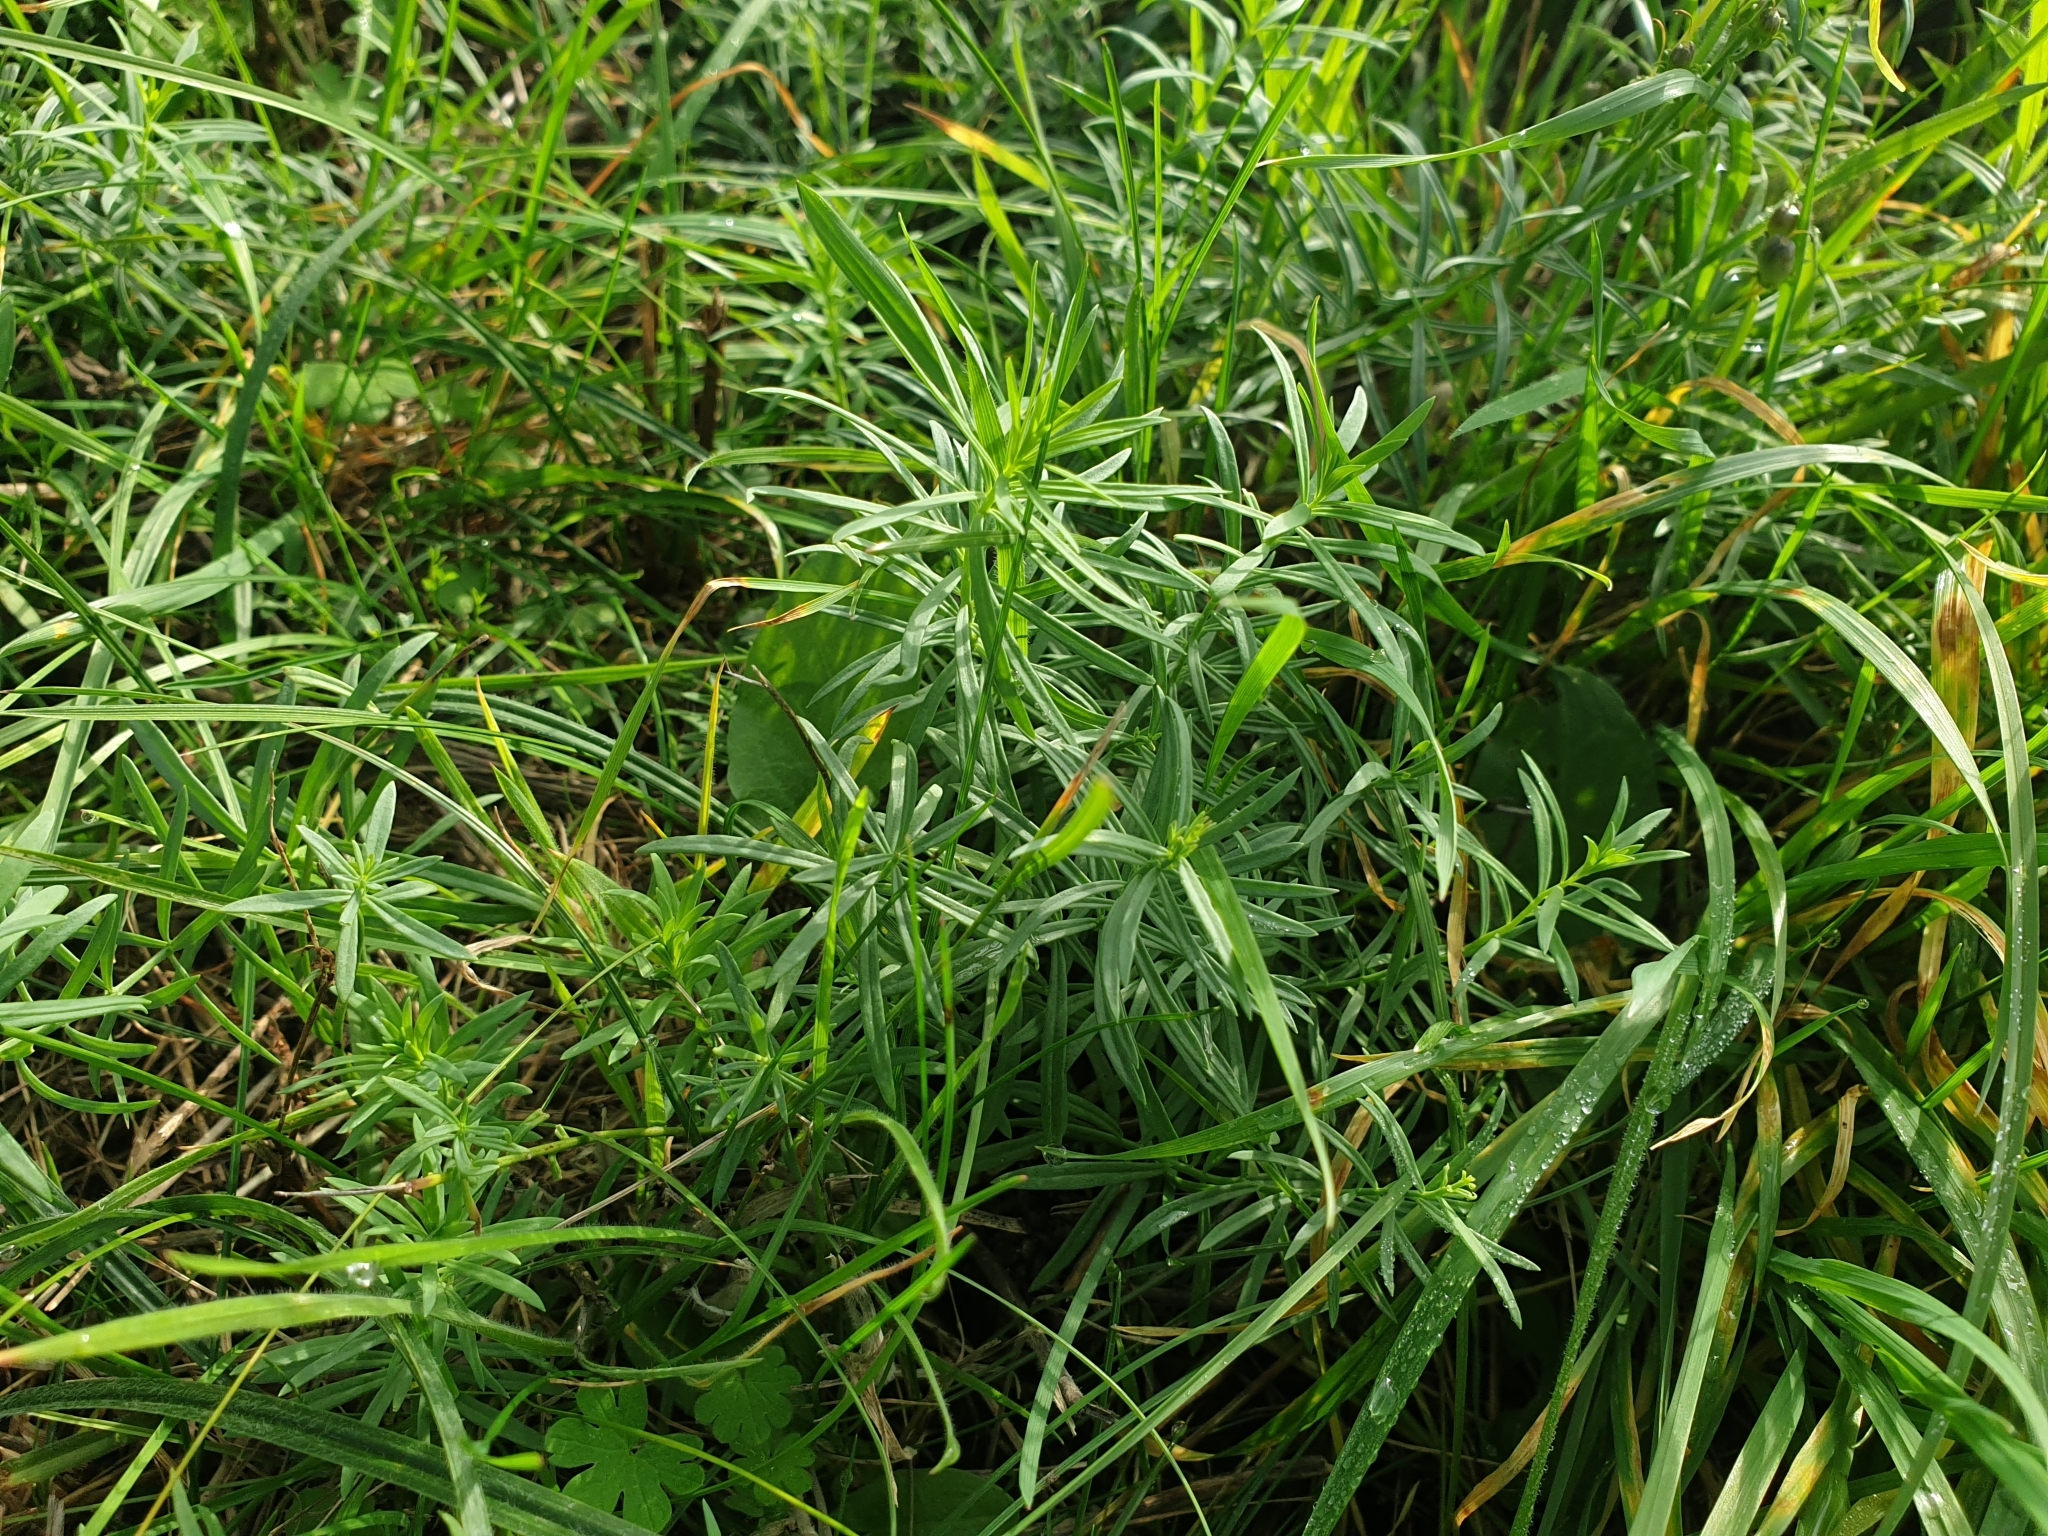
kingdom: Plantae
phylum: Tracheophyta
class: Magnoliopsida
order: Lamiales
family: Plantaginaceae
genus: Linaria
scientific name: Linaria vulgaris
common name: Butter and eggs
